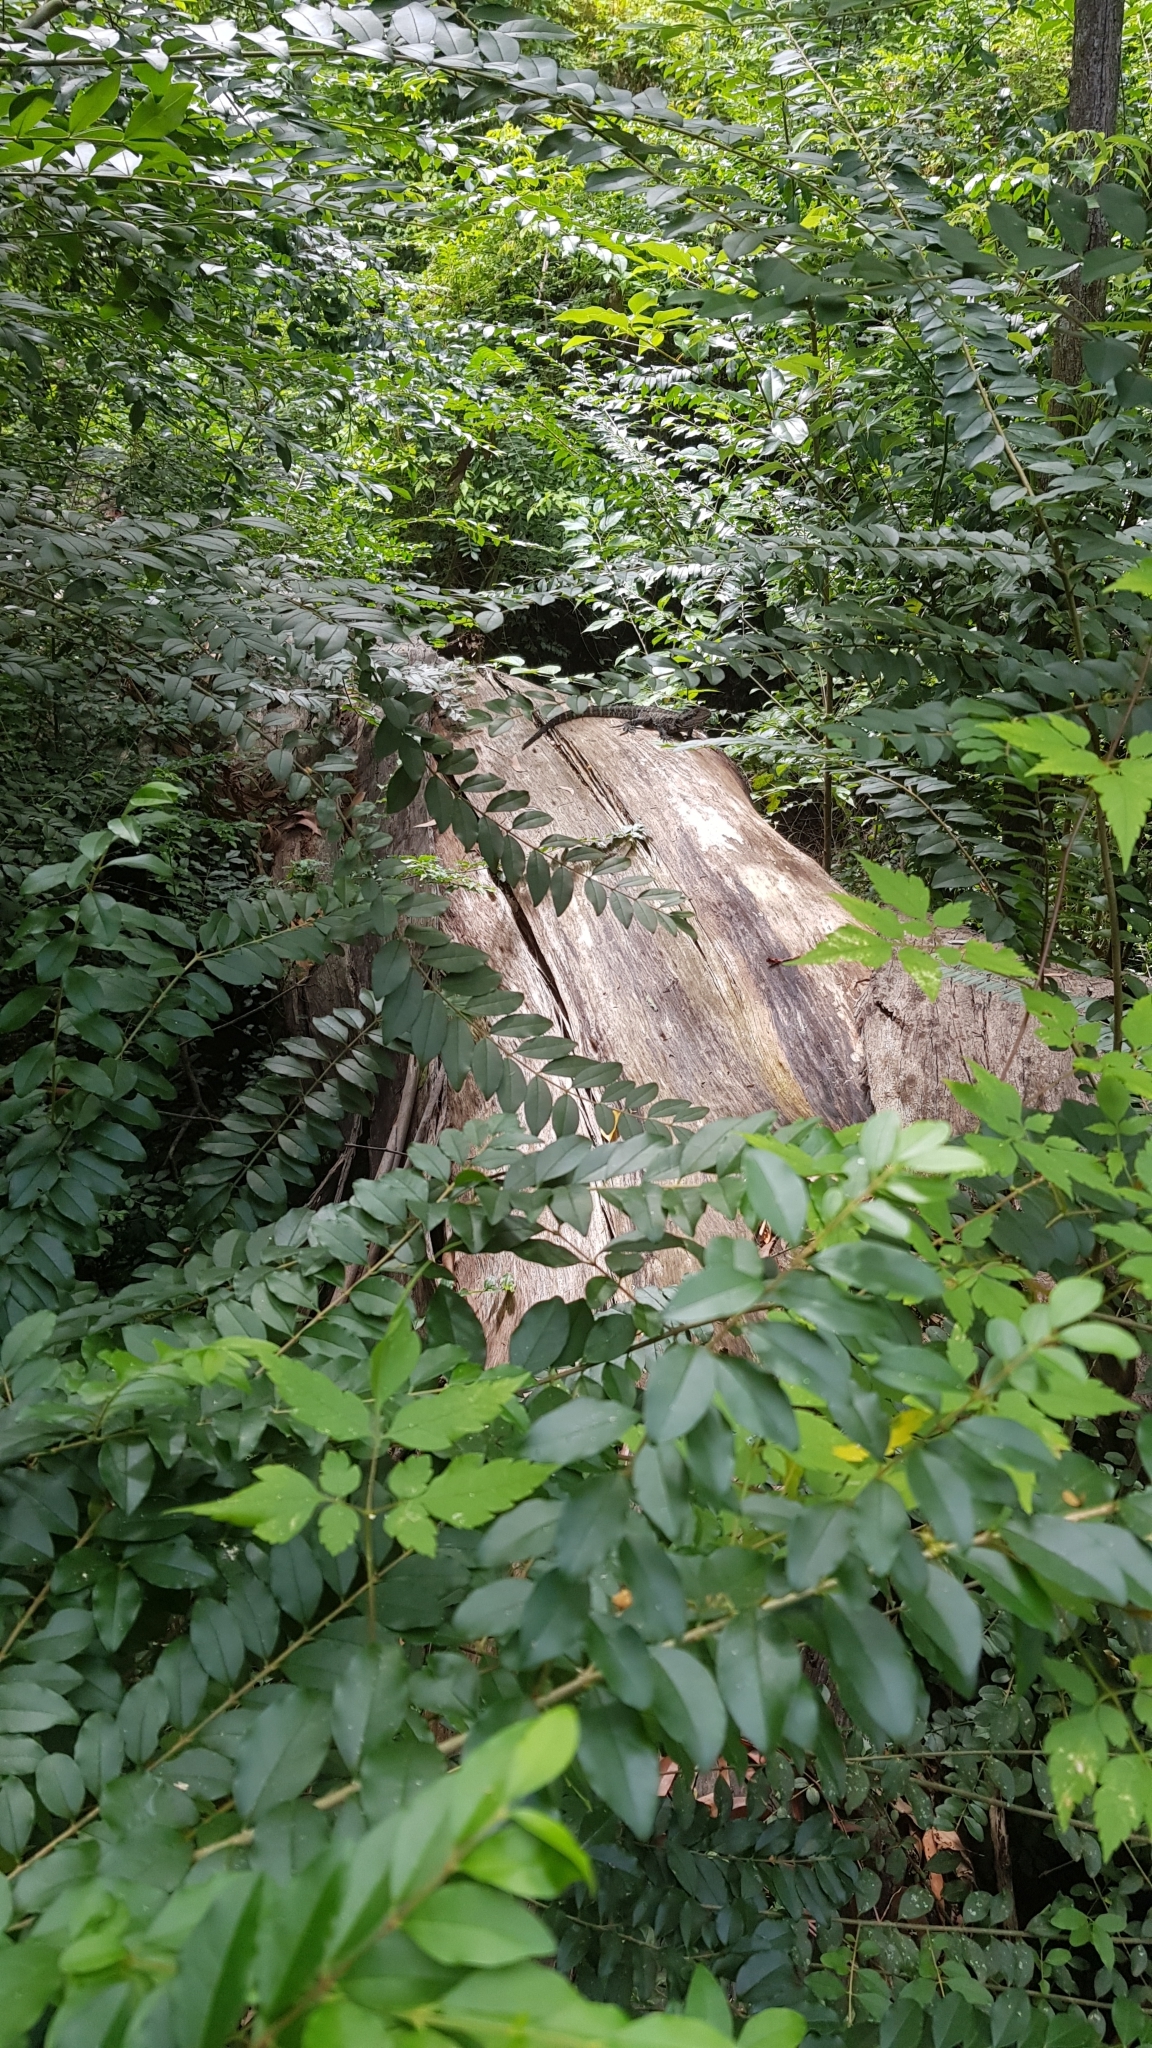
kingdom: Animalia
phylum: Chordata
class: Squamata
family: Agamidae
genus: Intellagama
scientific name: Intellagama lesueurii
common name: Eastern water dragon
